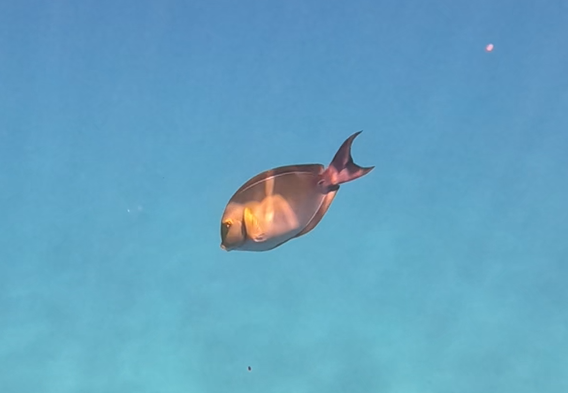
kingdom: Animalia
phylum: Chordata
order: Perciformes
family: Acanthuridae
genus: Acanthurus
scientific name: Acanthurus xanthopterus
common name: Cuvier's surgeonfish
